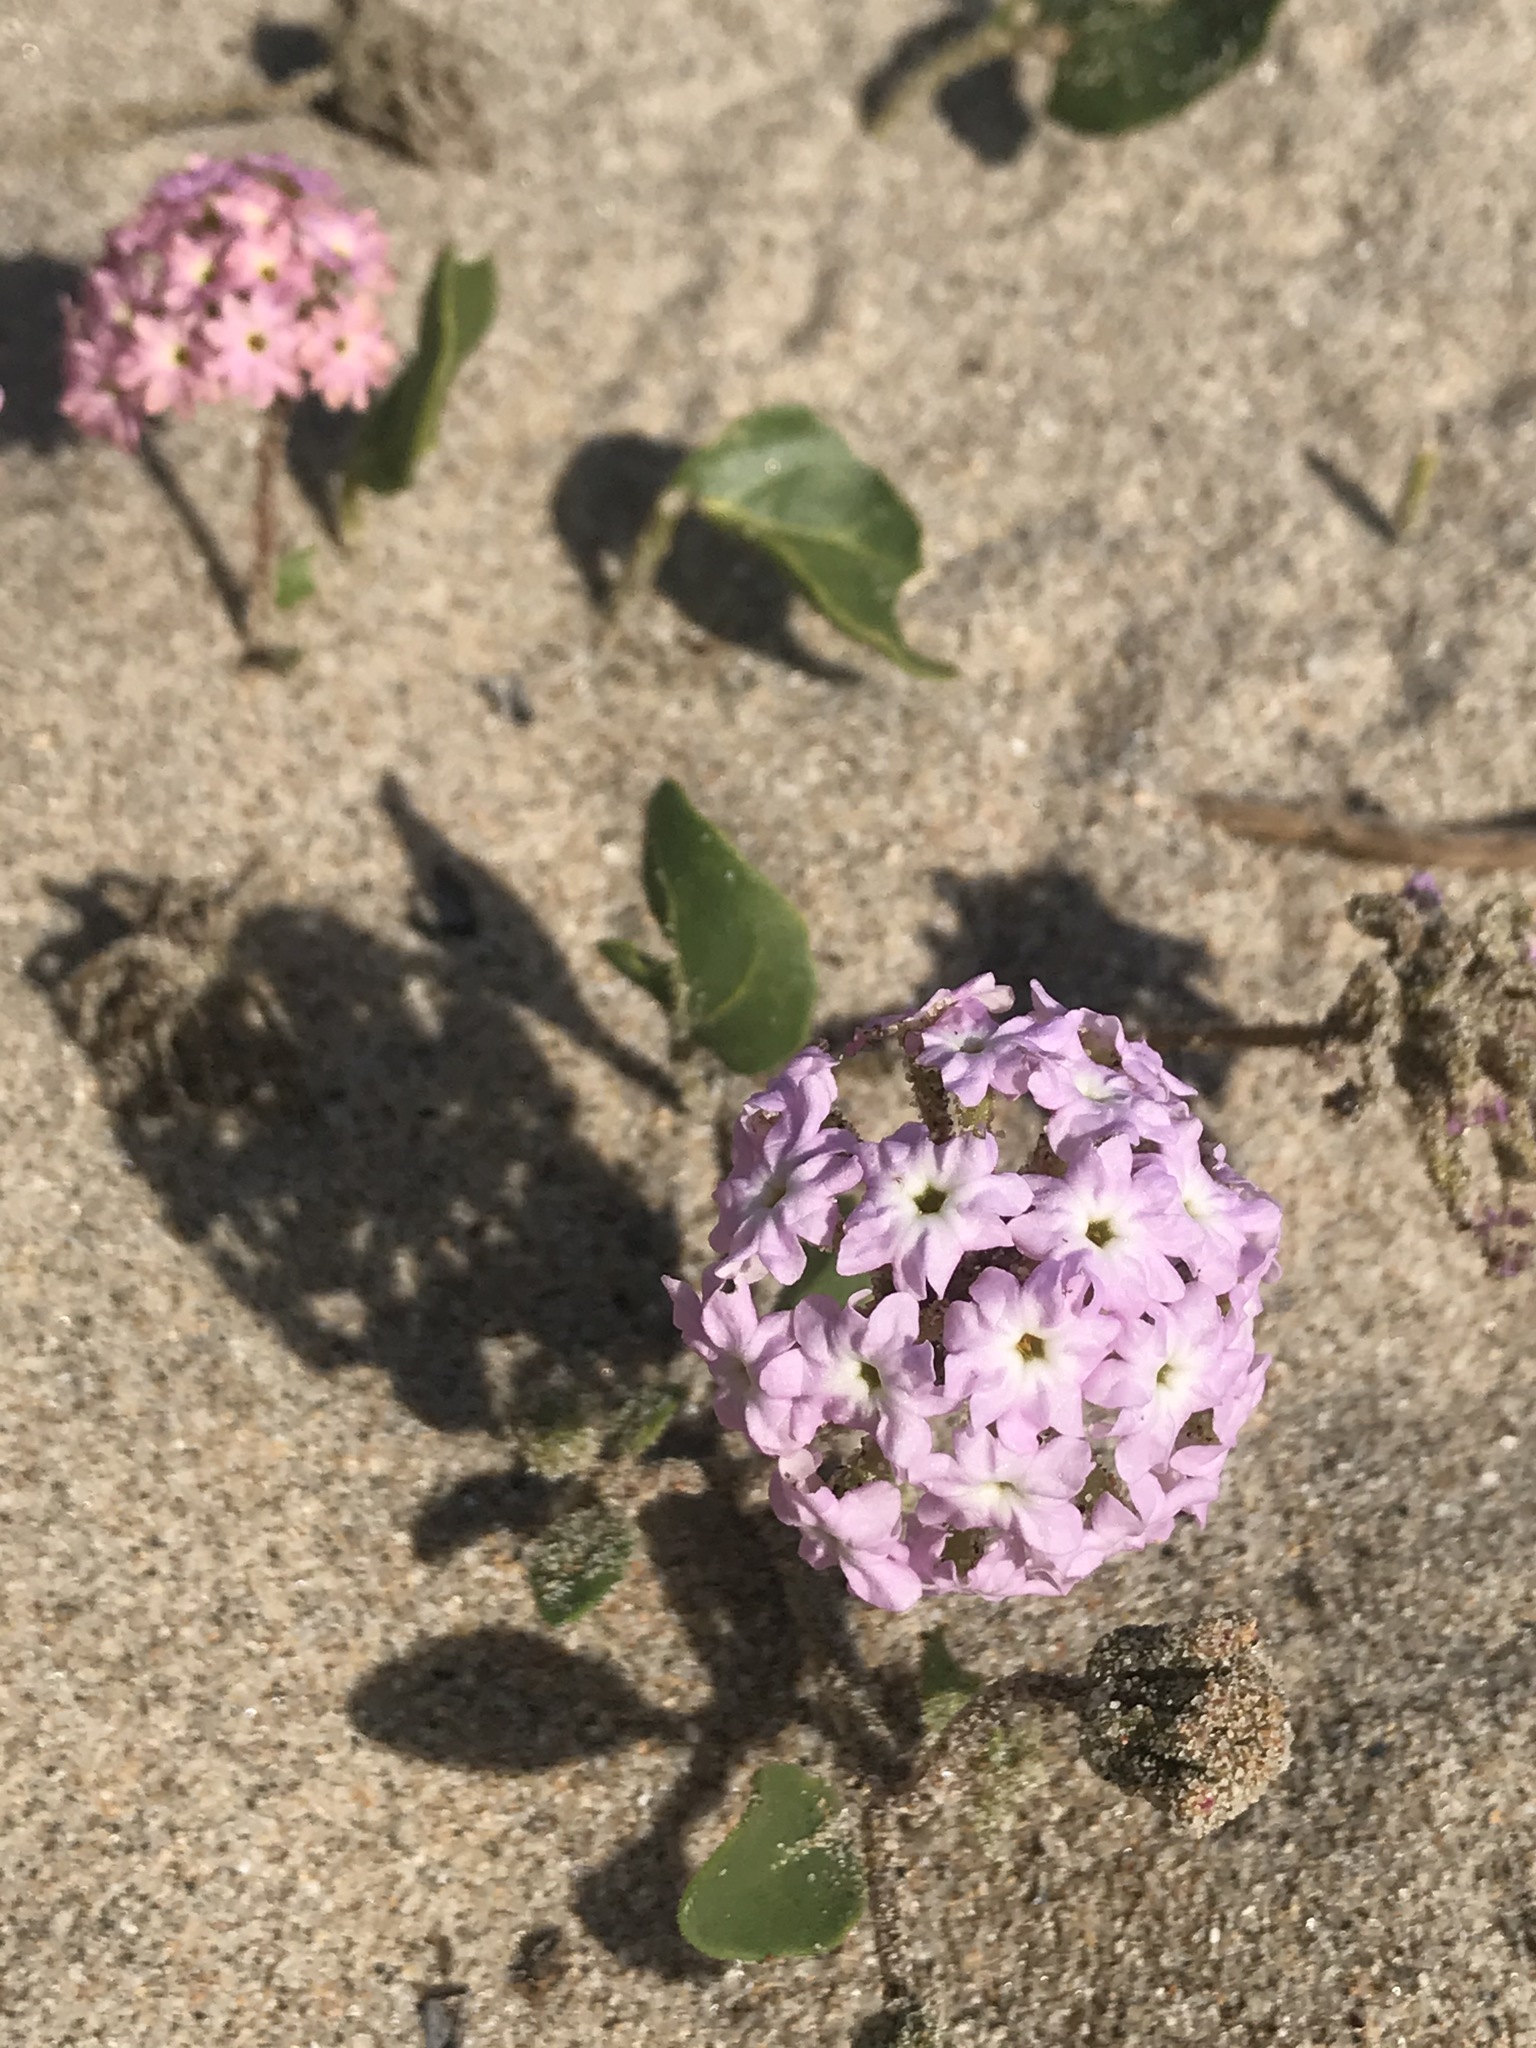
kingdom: Plantae
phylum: Tracheophyta
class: Magnoliopsida
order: Caryophyllales
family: Nyctaginaceae
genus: Abronia
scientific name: Abronia umbellata
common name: Sand-verbena
